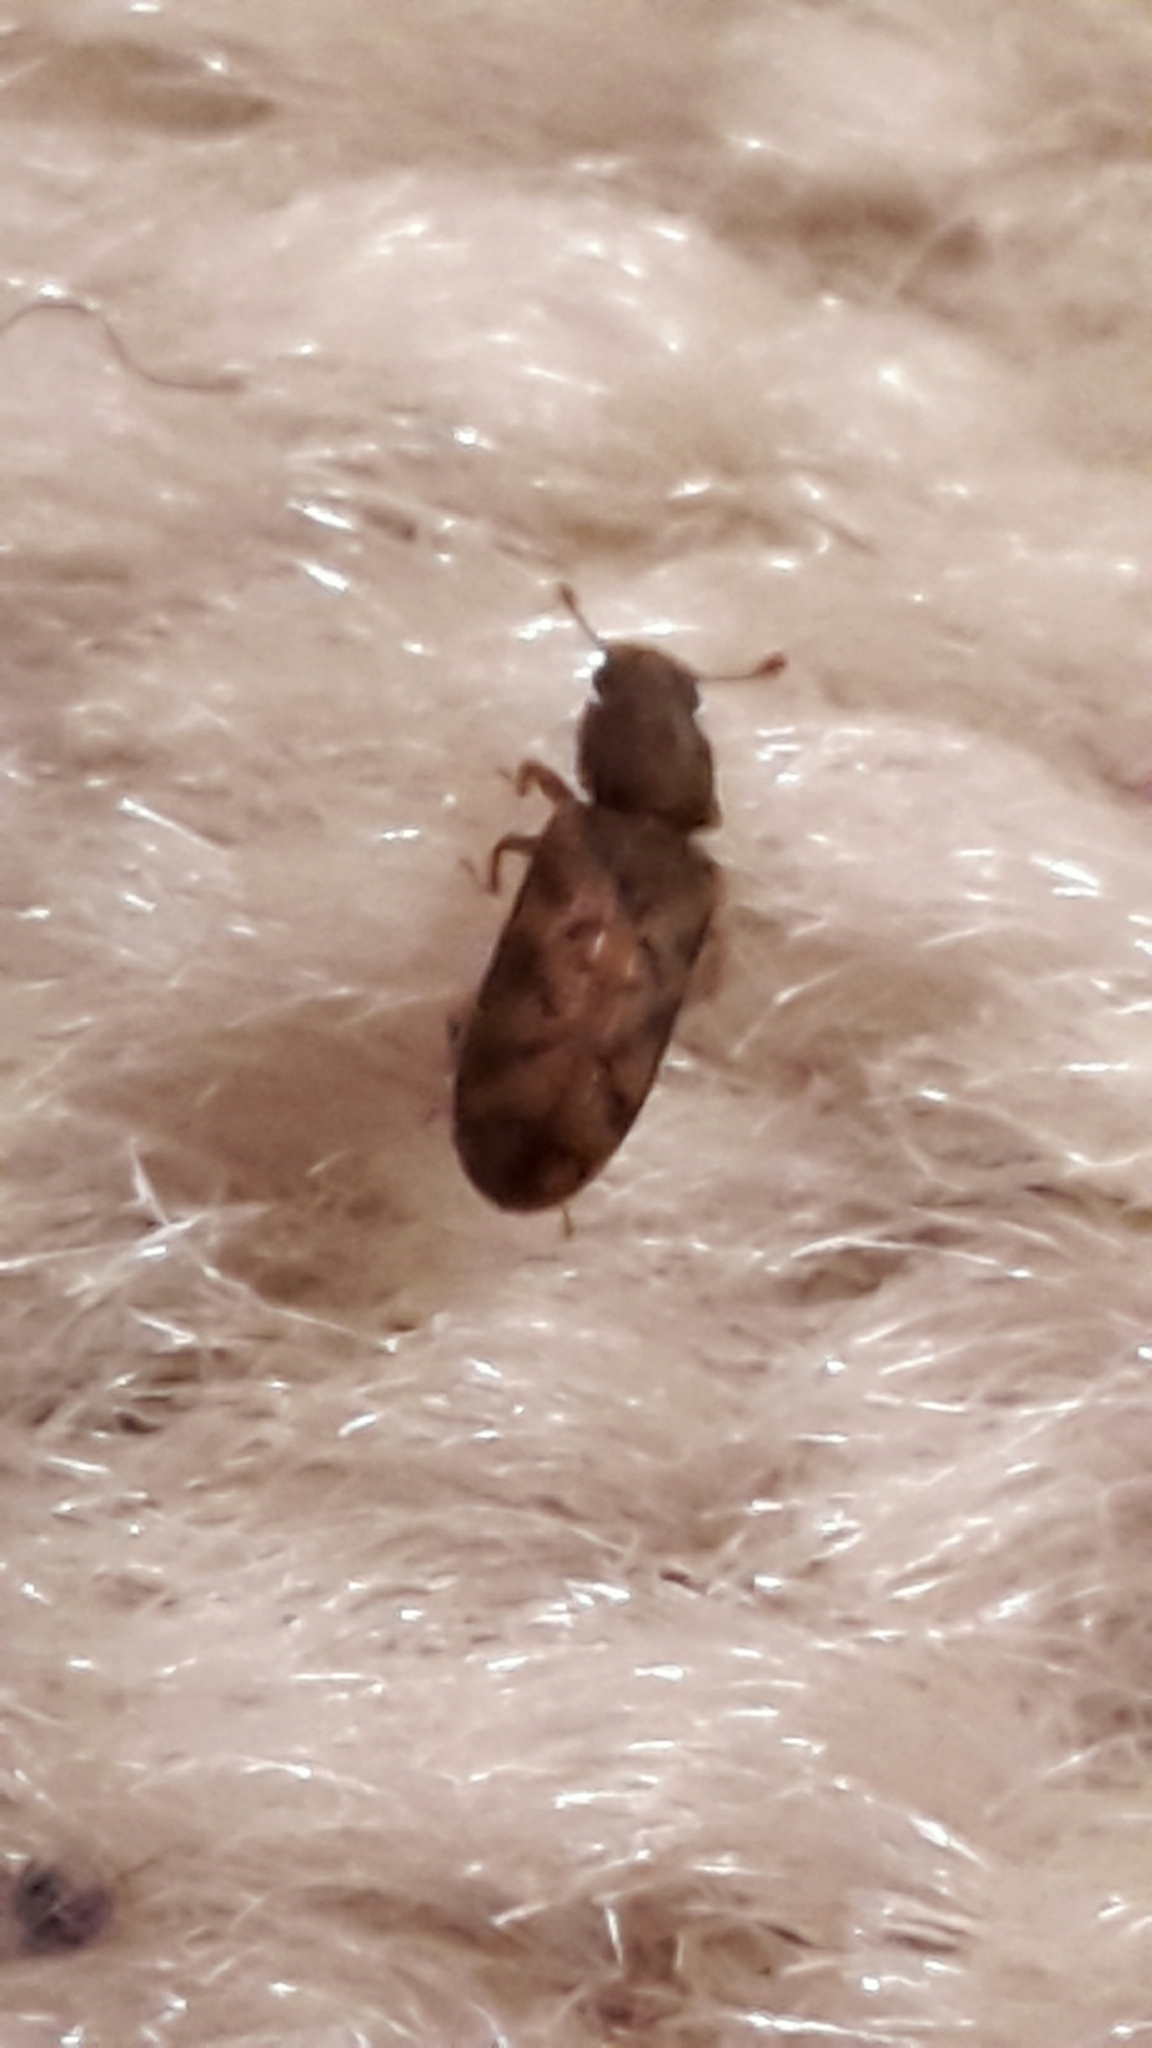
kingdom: Animalia
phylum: Arthropoda
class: Insecta
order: Coleoptera
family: Zopheridae
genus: Bitoma
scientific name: Bitoma insularis
